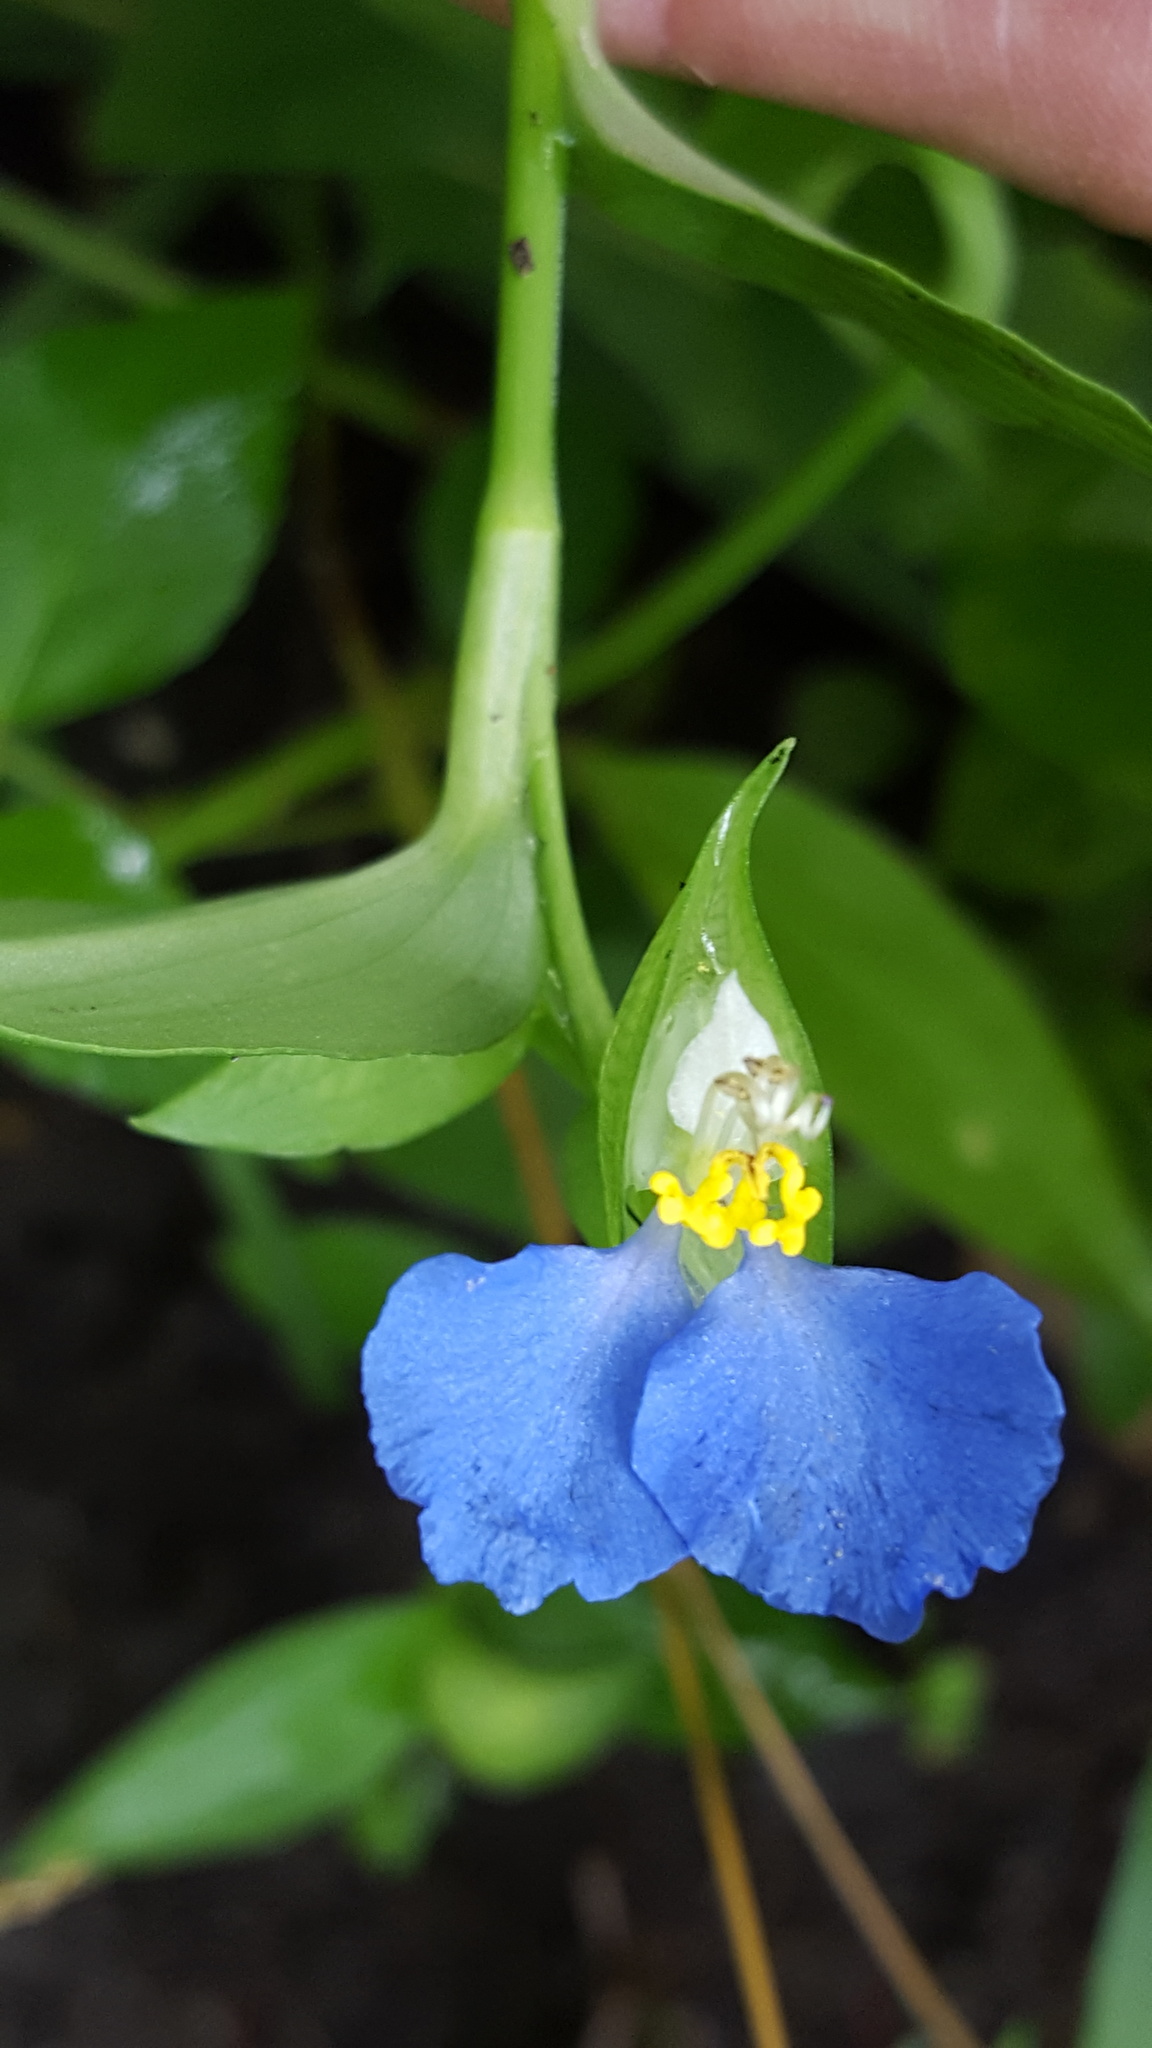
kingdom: Plantae
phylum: Tracheophyta
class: Liliopsida
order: Commelinales
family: Commelinaceae
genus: Commelina
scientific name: Commelina communis
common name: Asiatic dayflower
